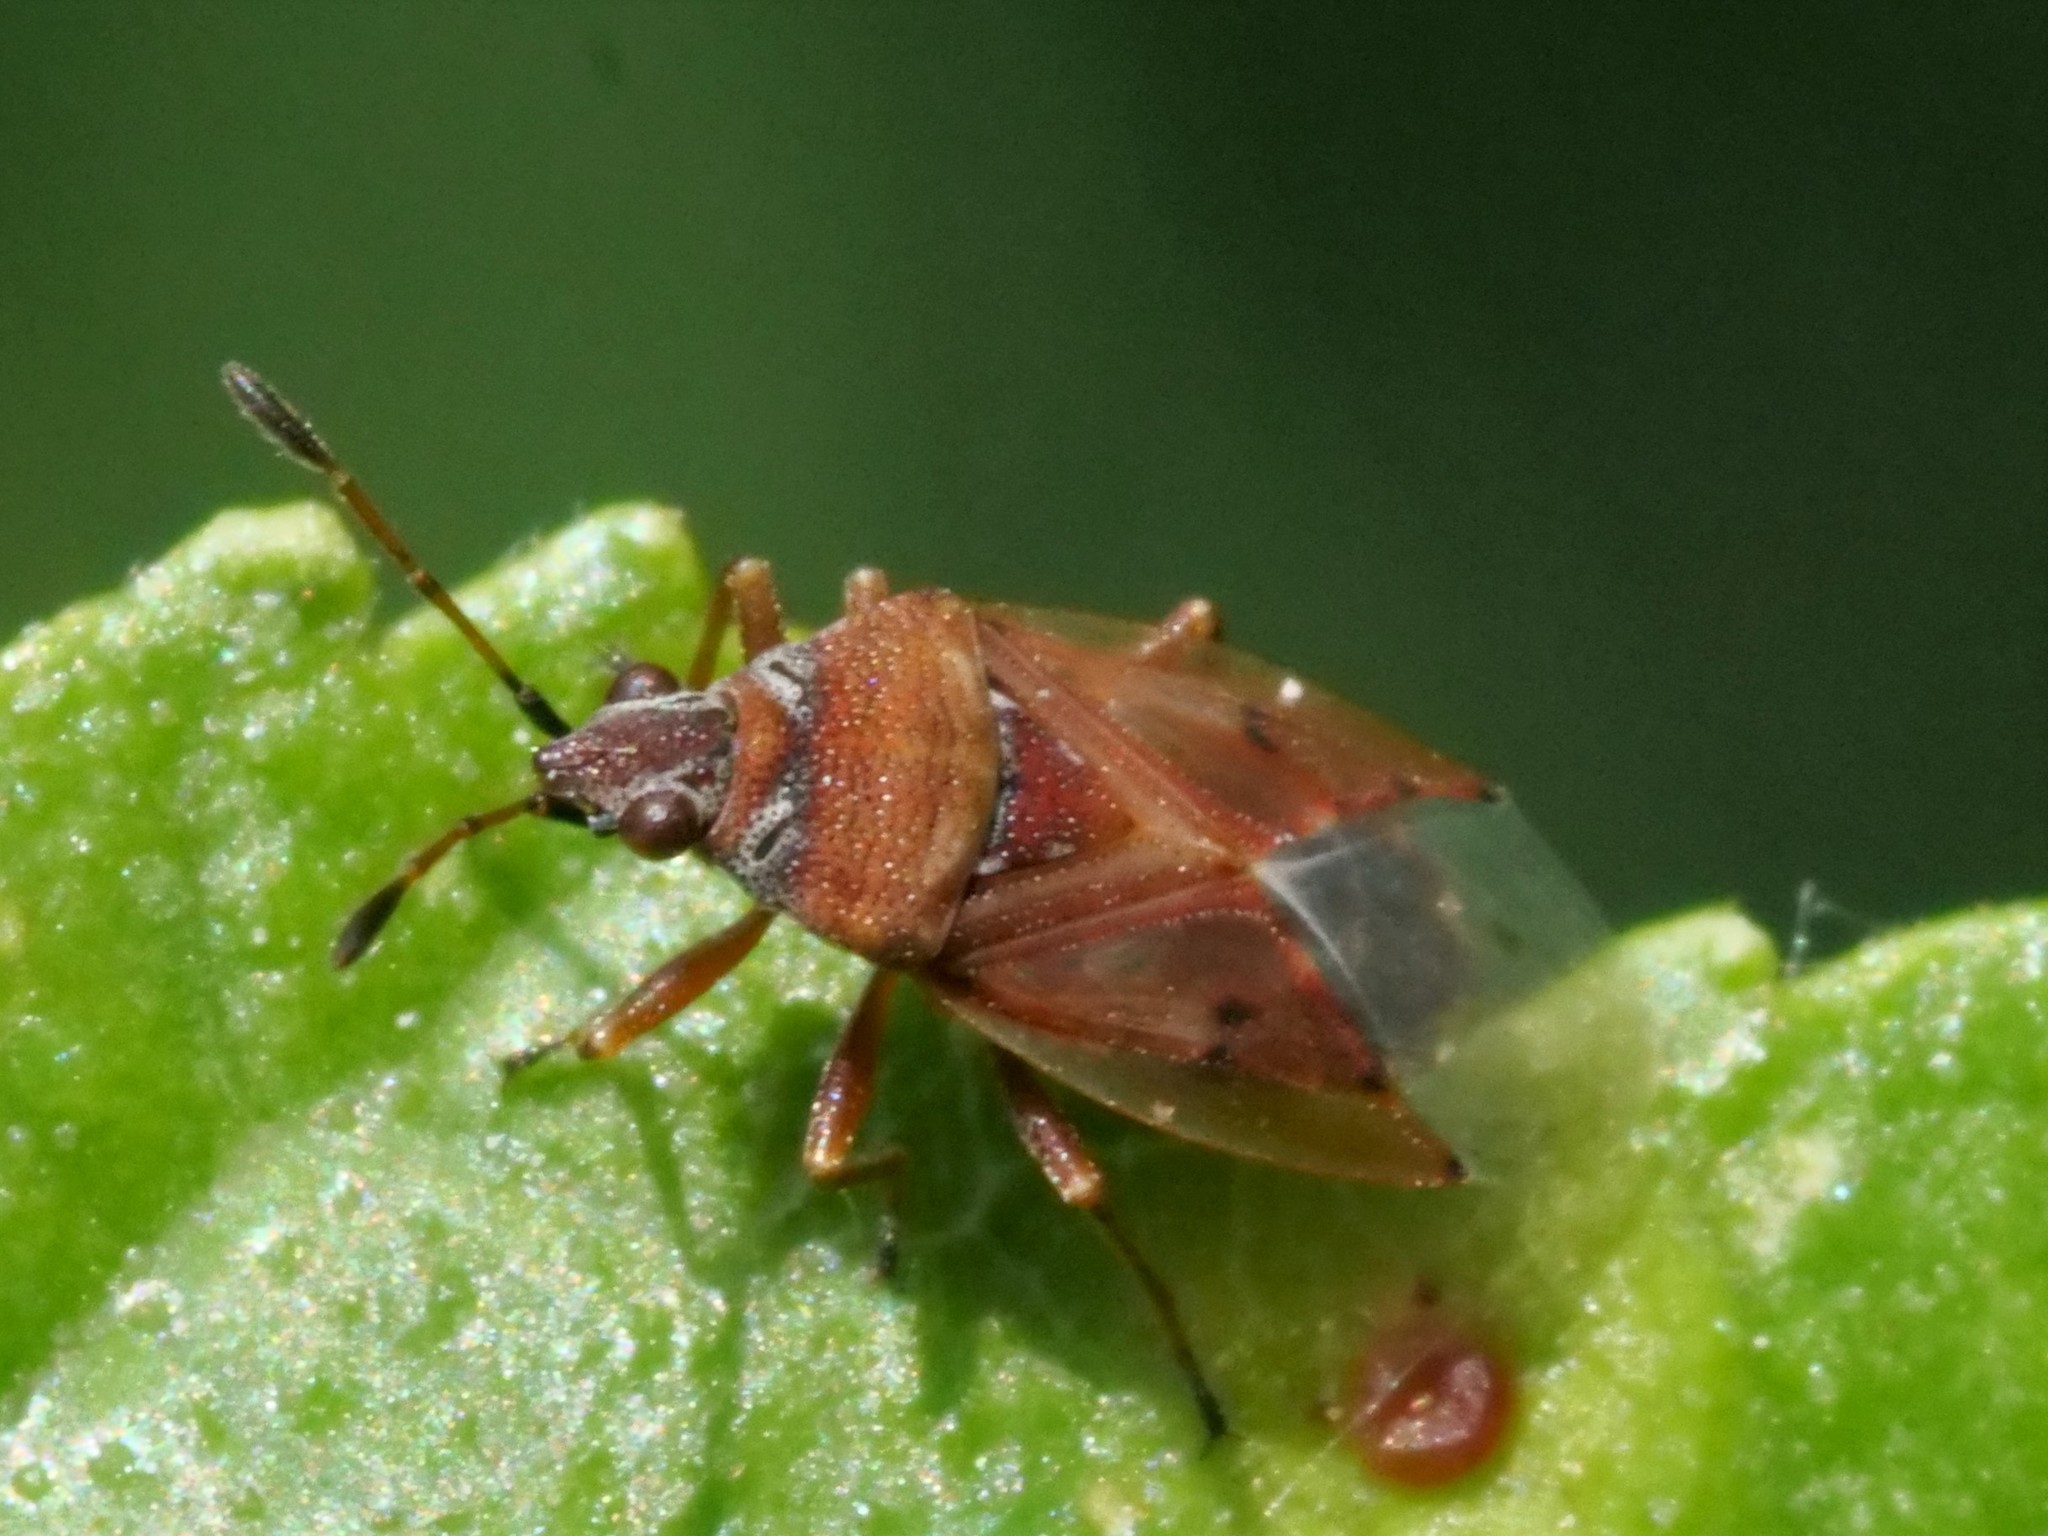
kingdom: Animalia
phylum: Arthropoda
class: Insecta
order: Hemiptera
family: Lygaeidae
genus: Kleidocerys
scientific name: Kleidocerys resedae
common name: Birch catkin bug
